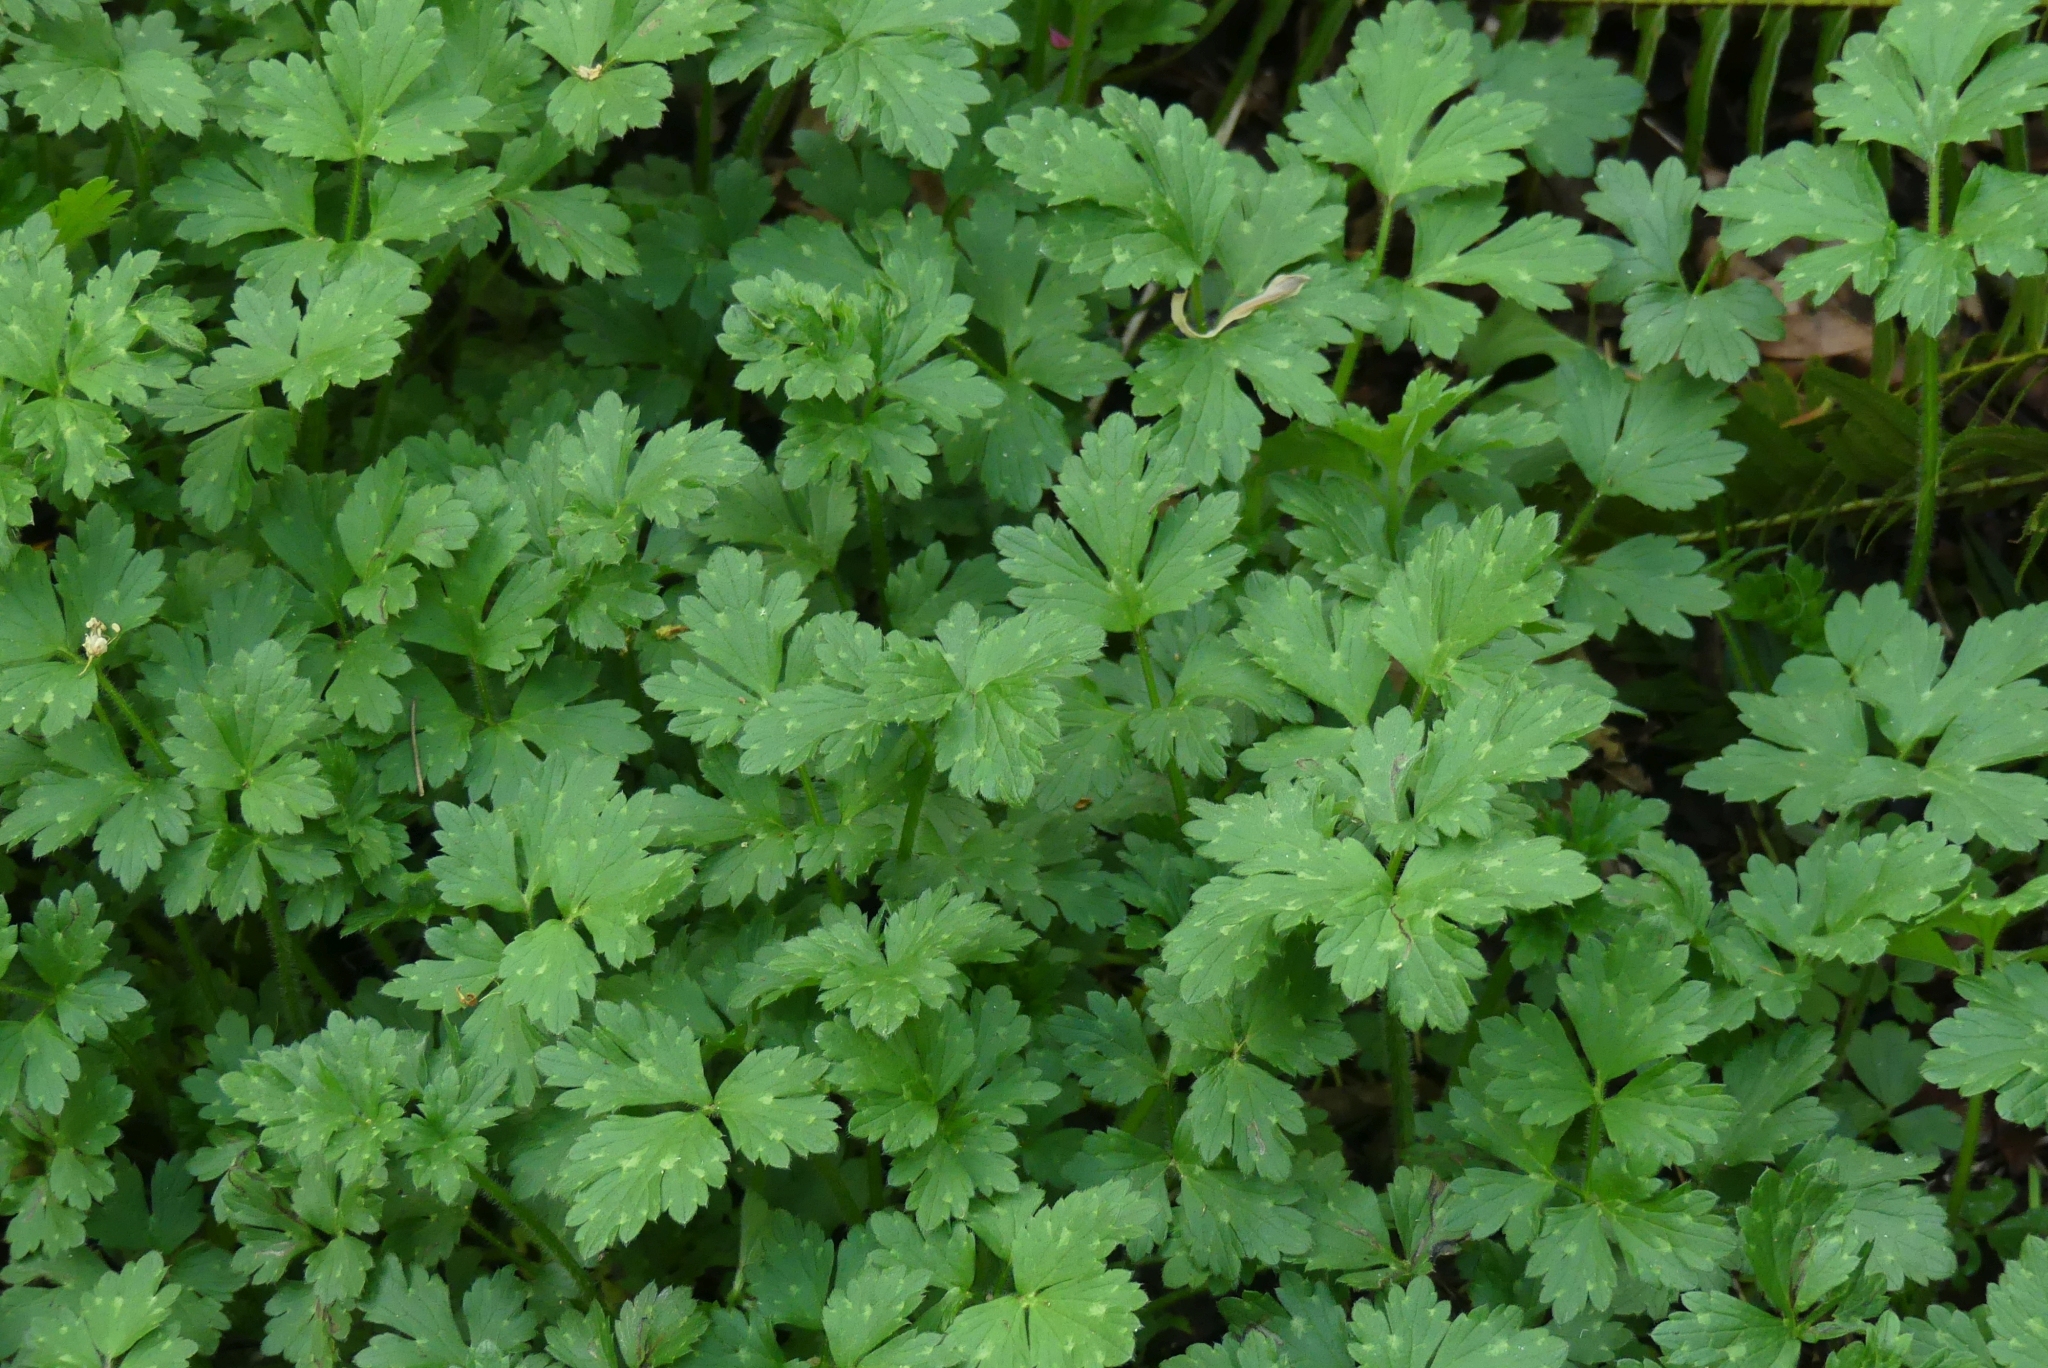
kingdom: Plantae
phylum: Tracheophyta
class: Magnoliopsida
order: Ranunculales
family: Ranunculaceae
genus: Ranunculus
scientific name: Ranunculus repens
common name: Creeping buttercup
